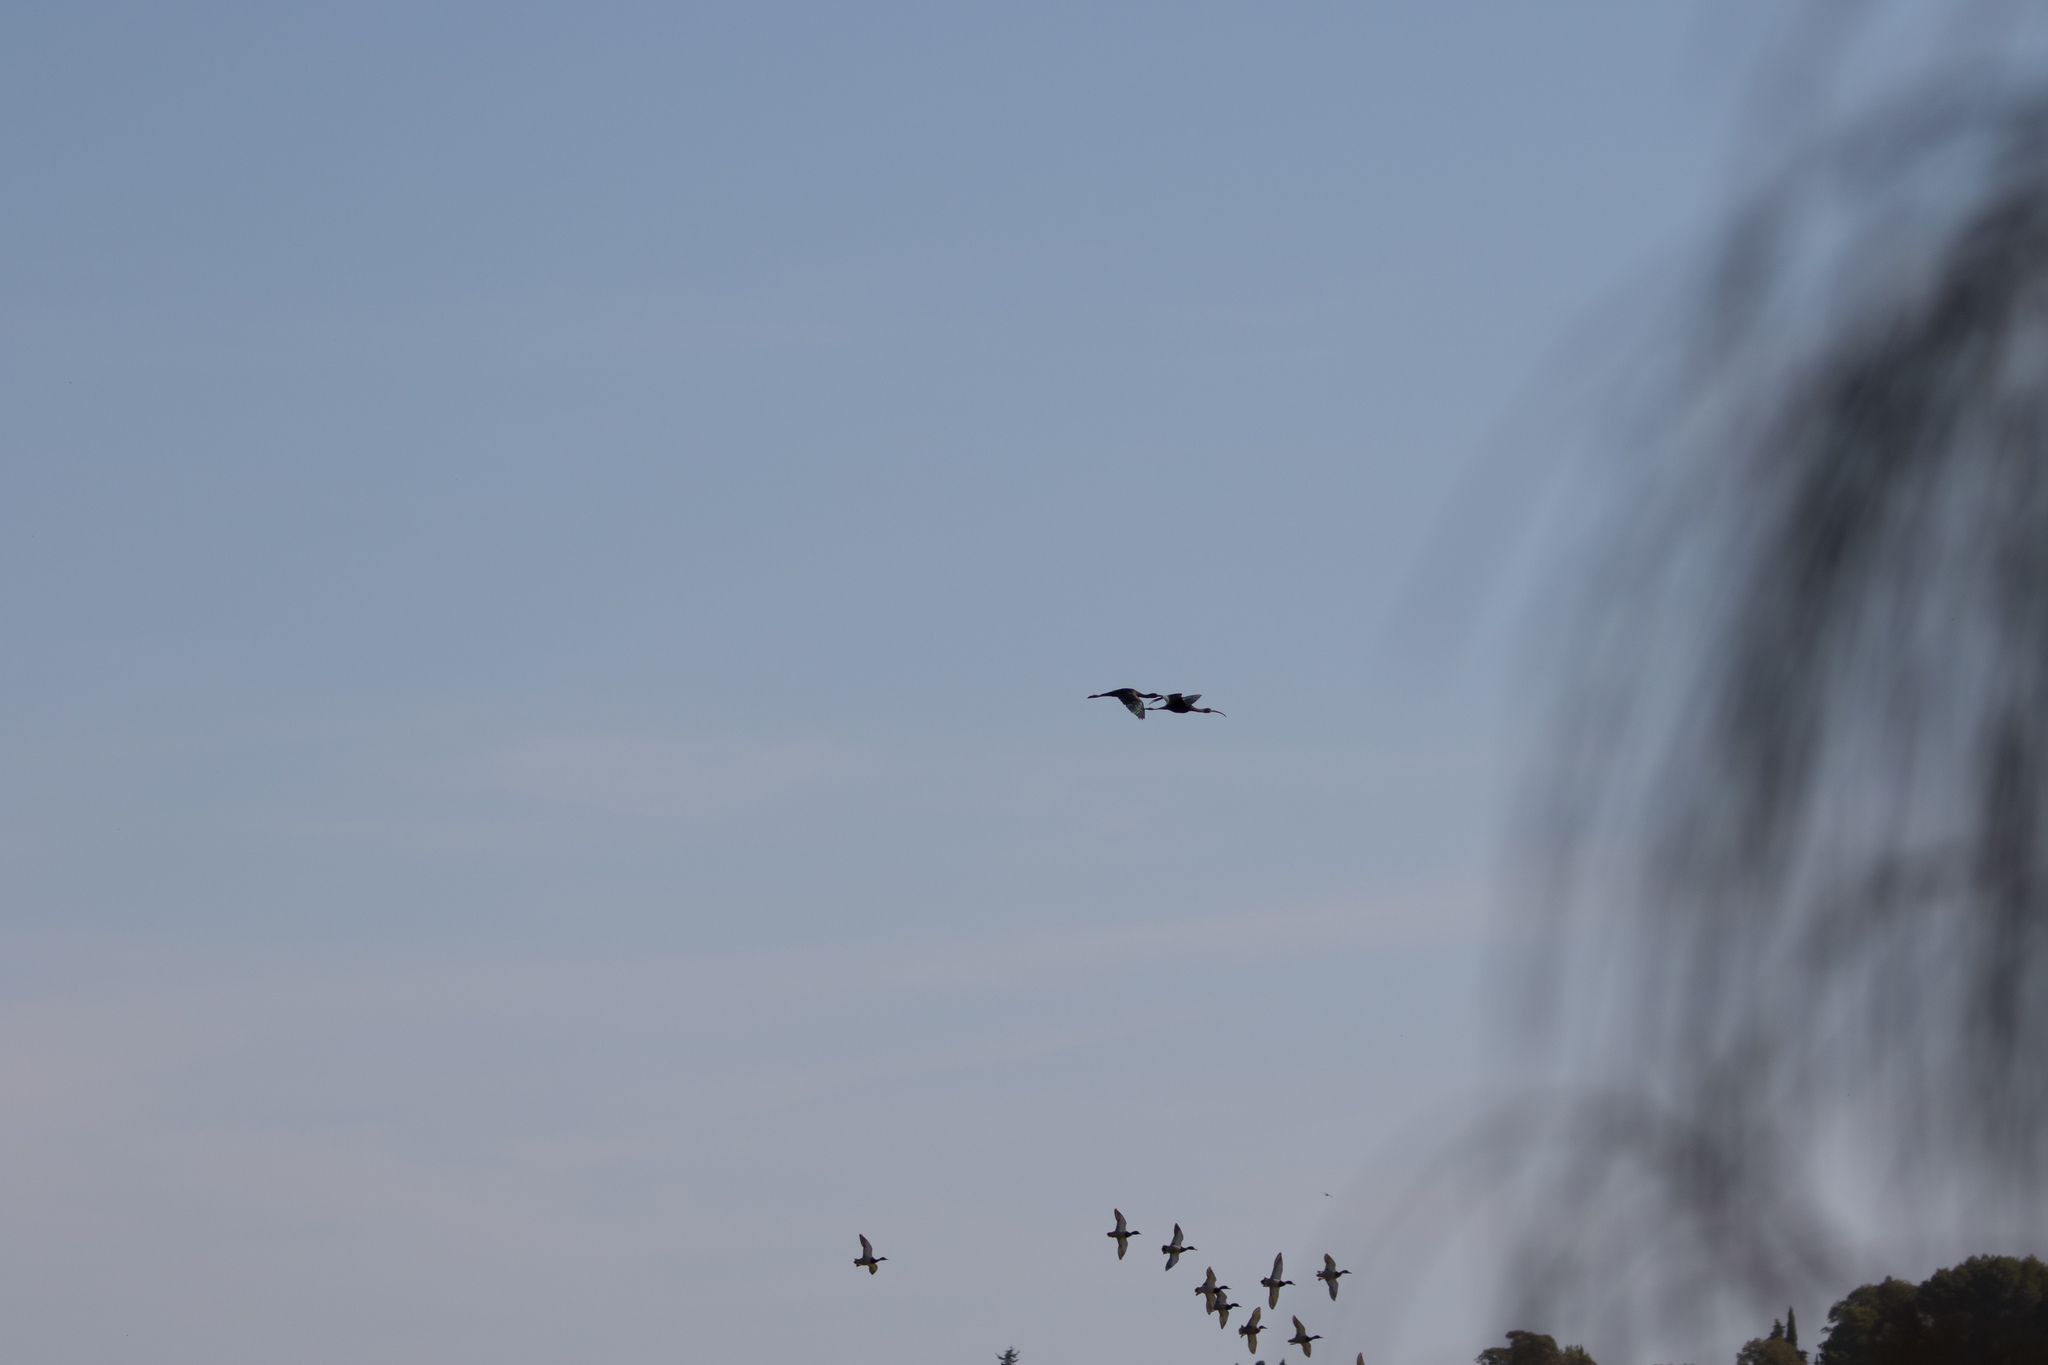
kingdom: Animalia
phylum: Chordata
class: Aves
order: Pelecaniformes
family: Threskiornithidae
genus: Plegadis
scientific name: Plegadis falcinellus
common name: Glossy ibis
